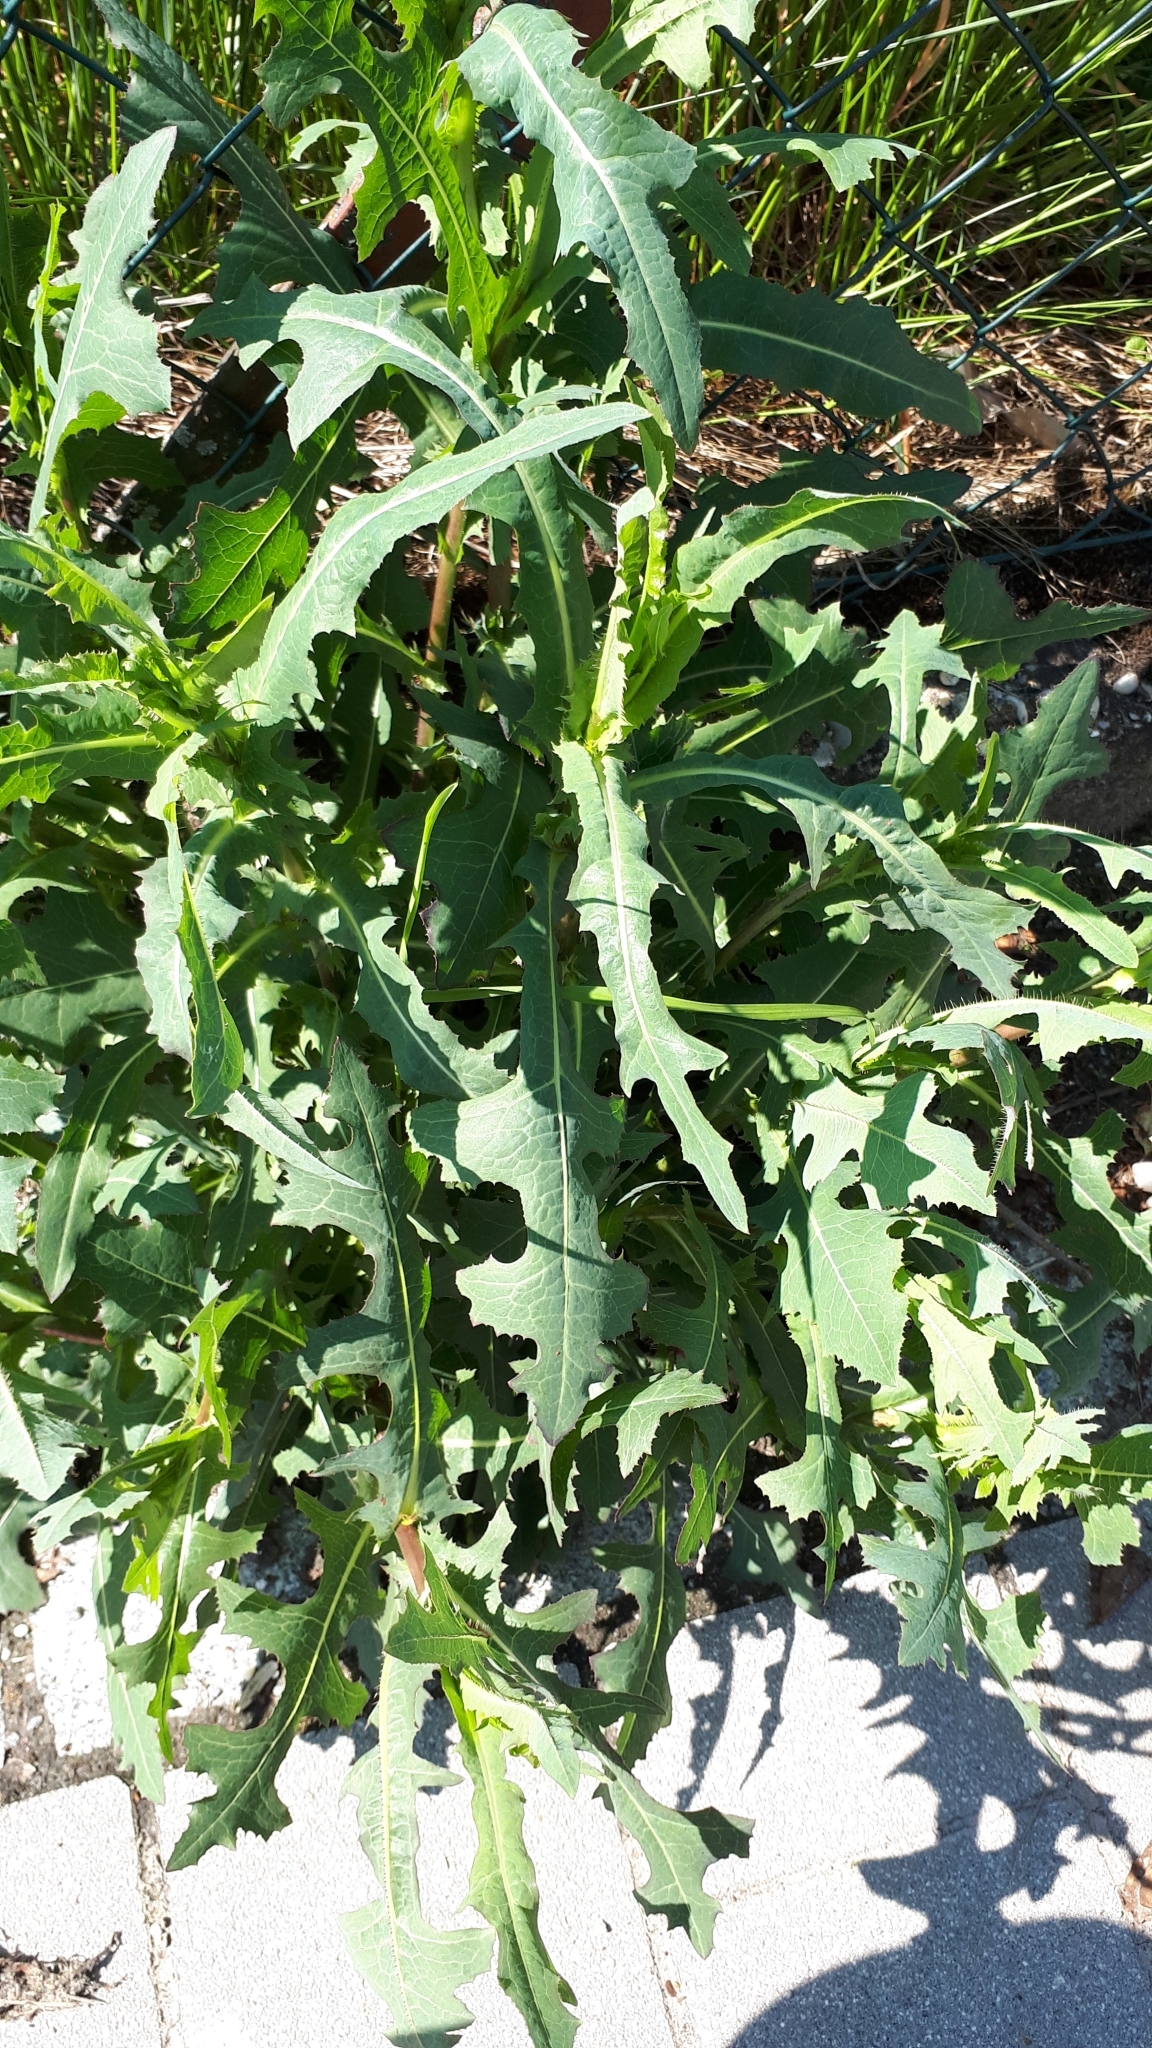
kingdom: Plantae
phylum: Tracheophyta
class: Magnoliopsida
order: Asterales
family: Asteraceae
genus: Lactuca
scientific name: Lactuca serriola
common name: Prickly lettuce
